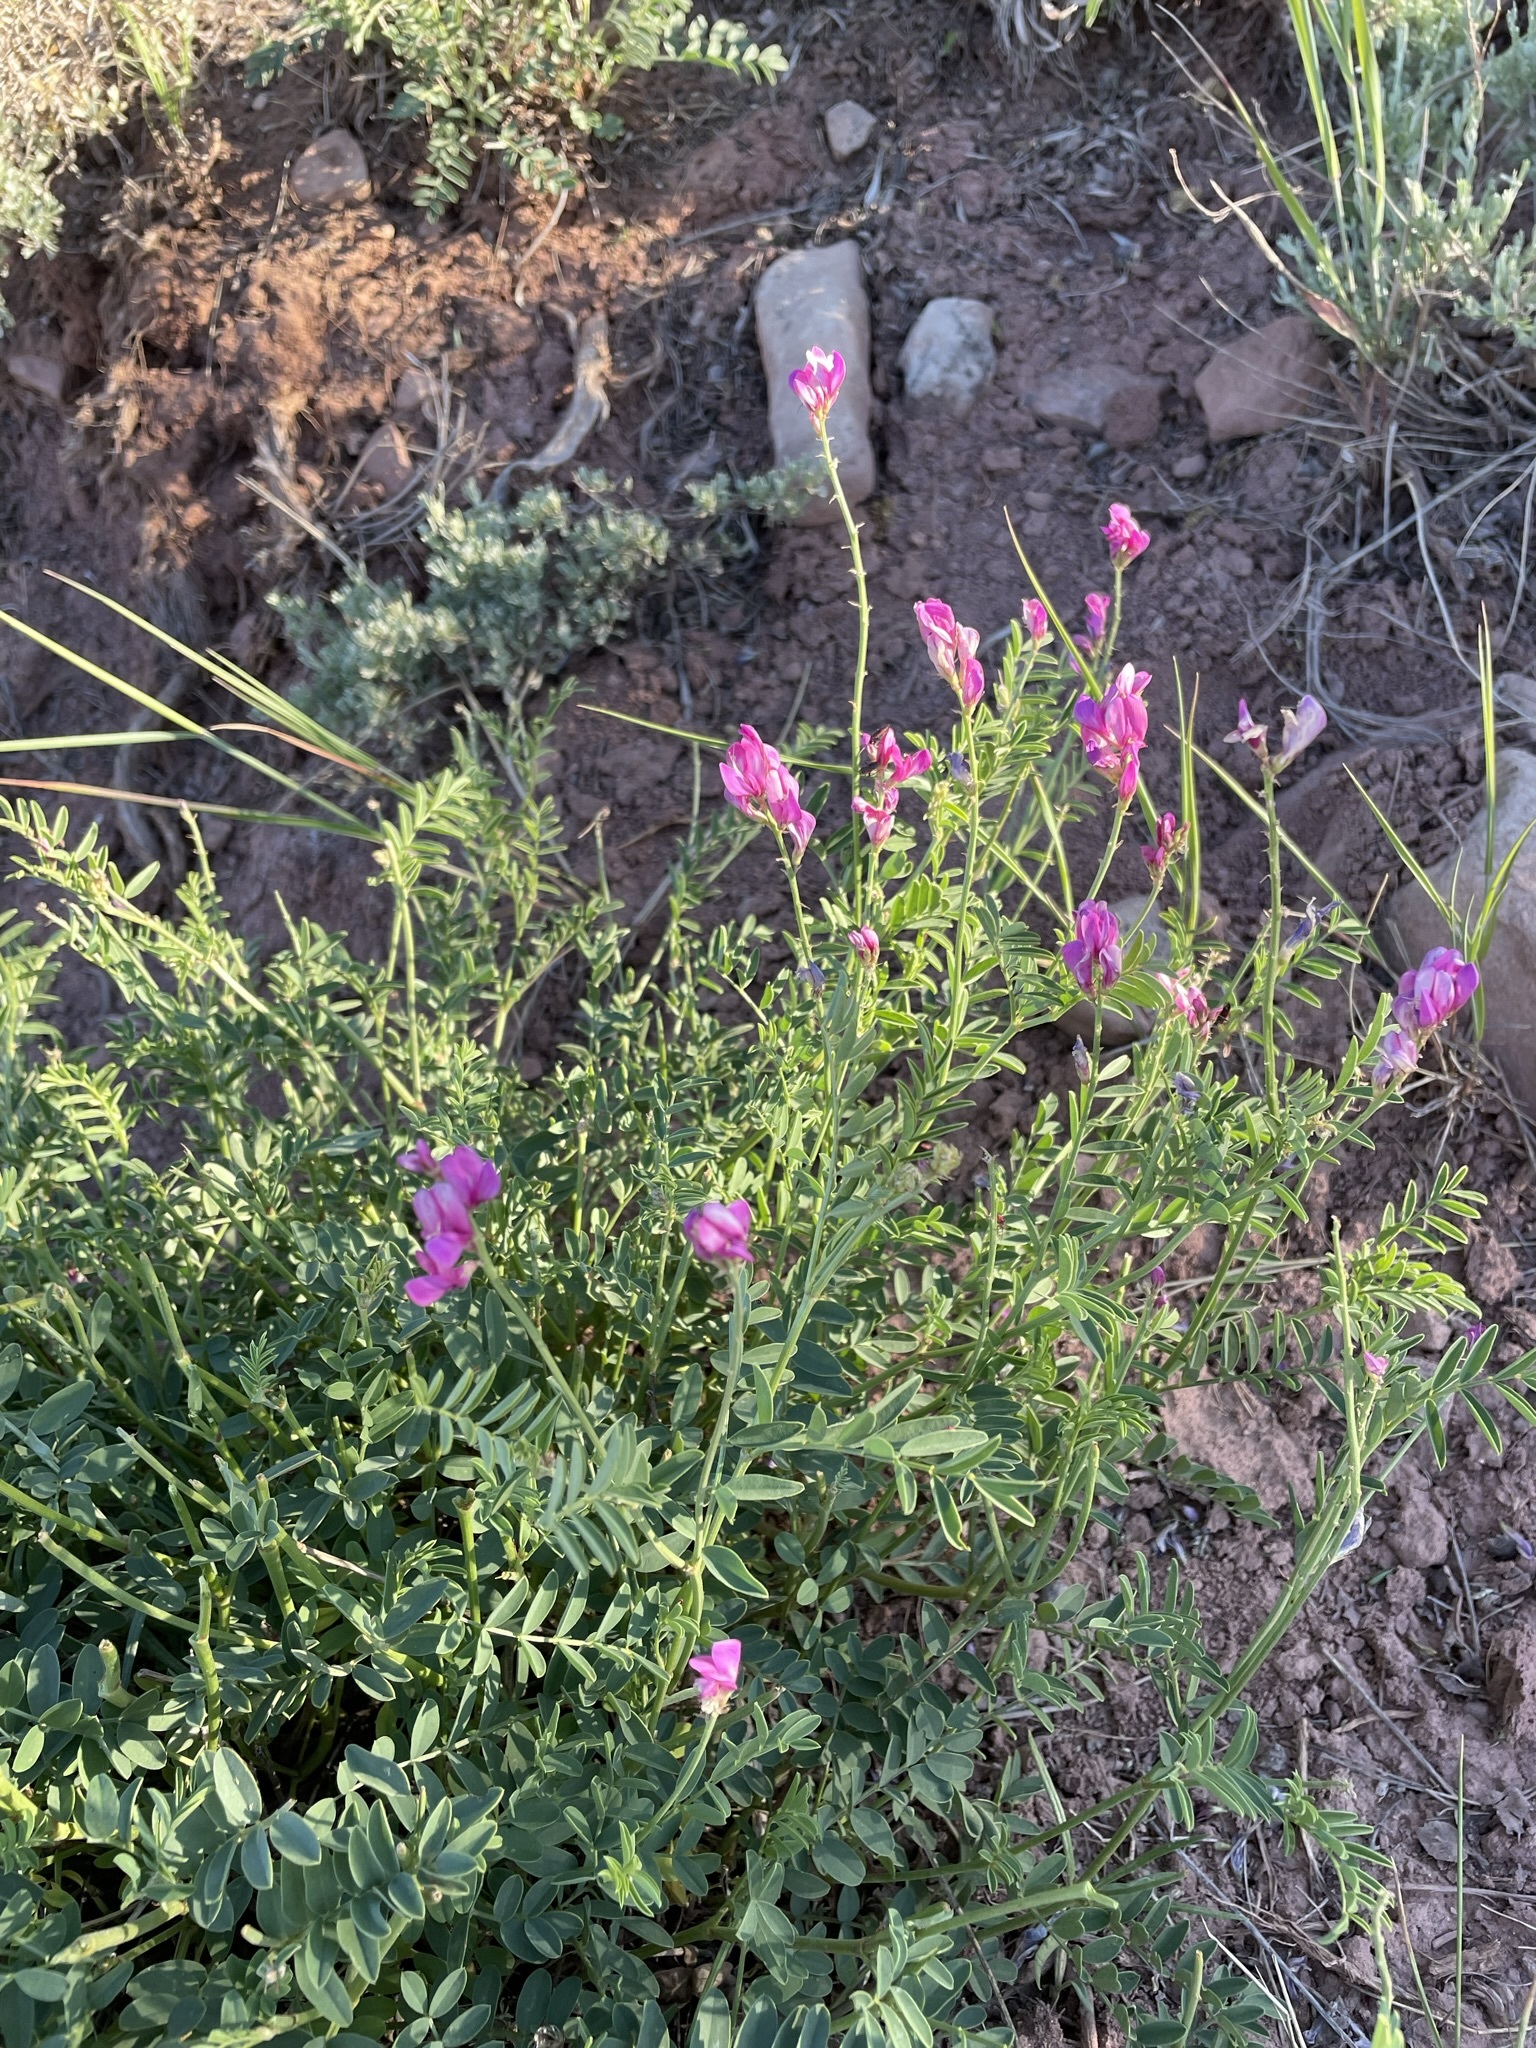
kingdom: Plantae
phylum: Tracheophyta
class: Magnoliopsida
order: Fabales
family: Fabaceae
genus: Hedysarum
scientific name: Hedysarum boreale
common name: Northern sweet-vetch
